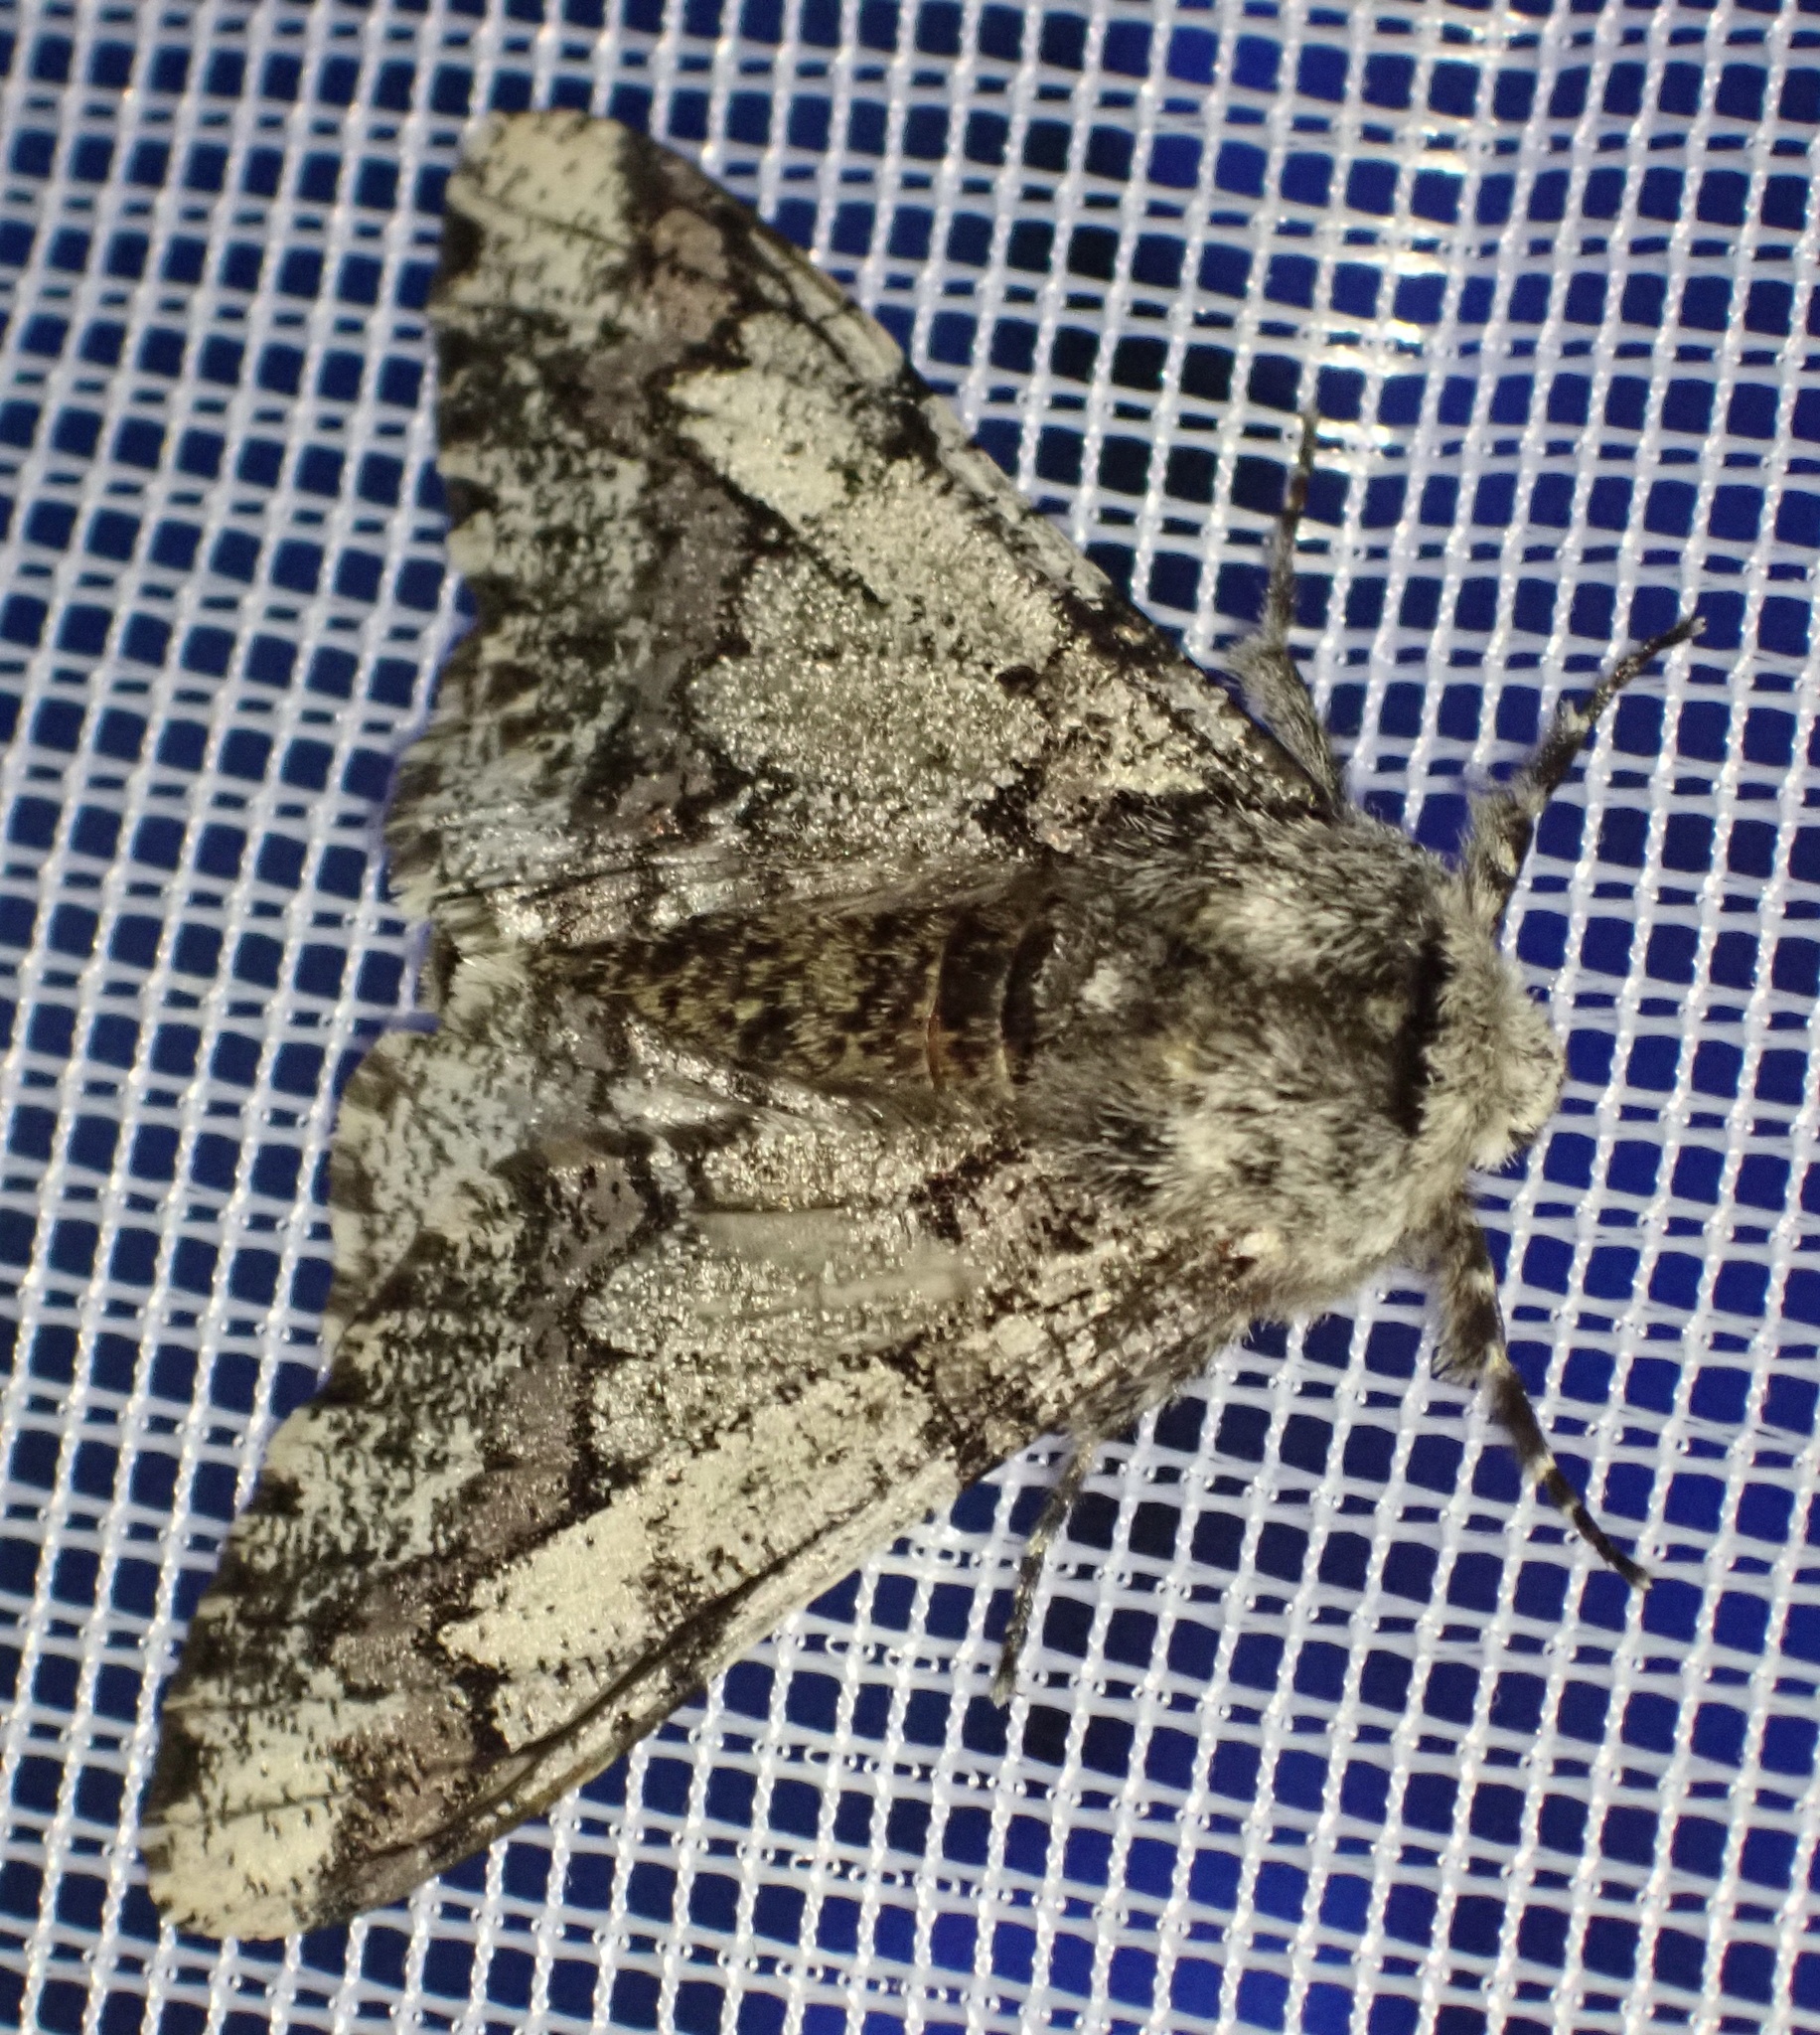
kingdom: Animalia
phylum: Arthropoda
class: Insecta
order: Lepidoptera
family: Geometridae
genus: Biston
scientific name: Biston strataria
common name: Oak beauty
